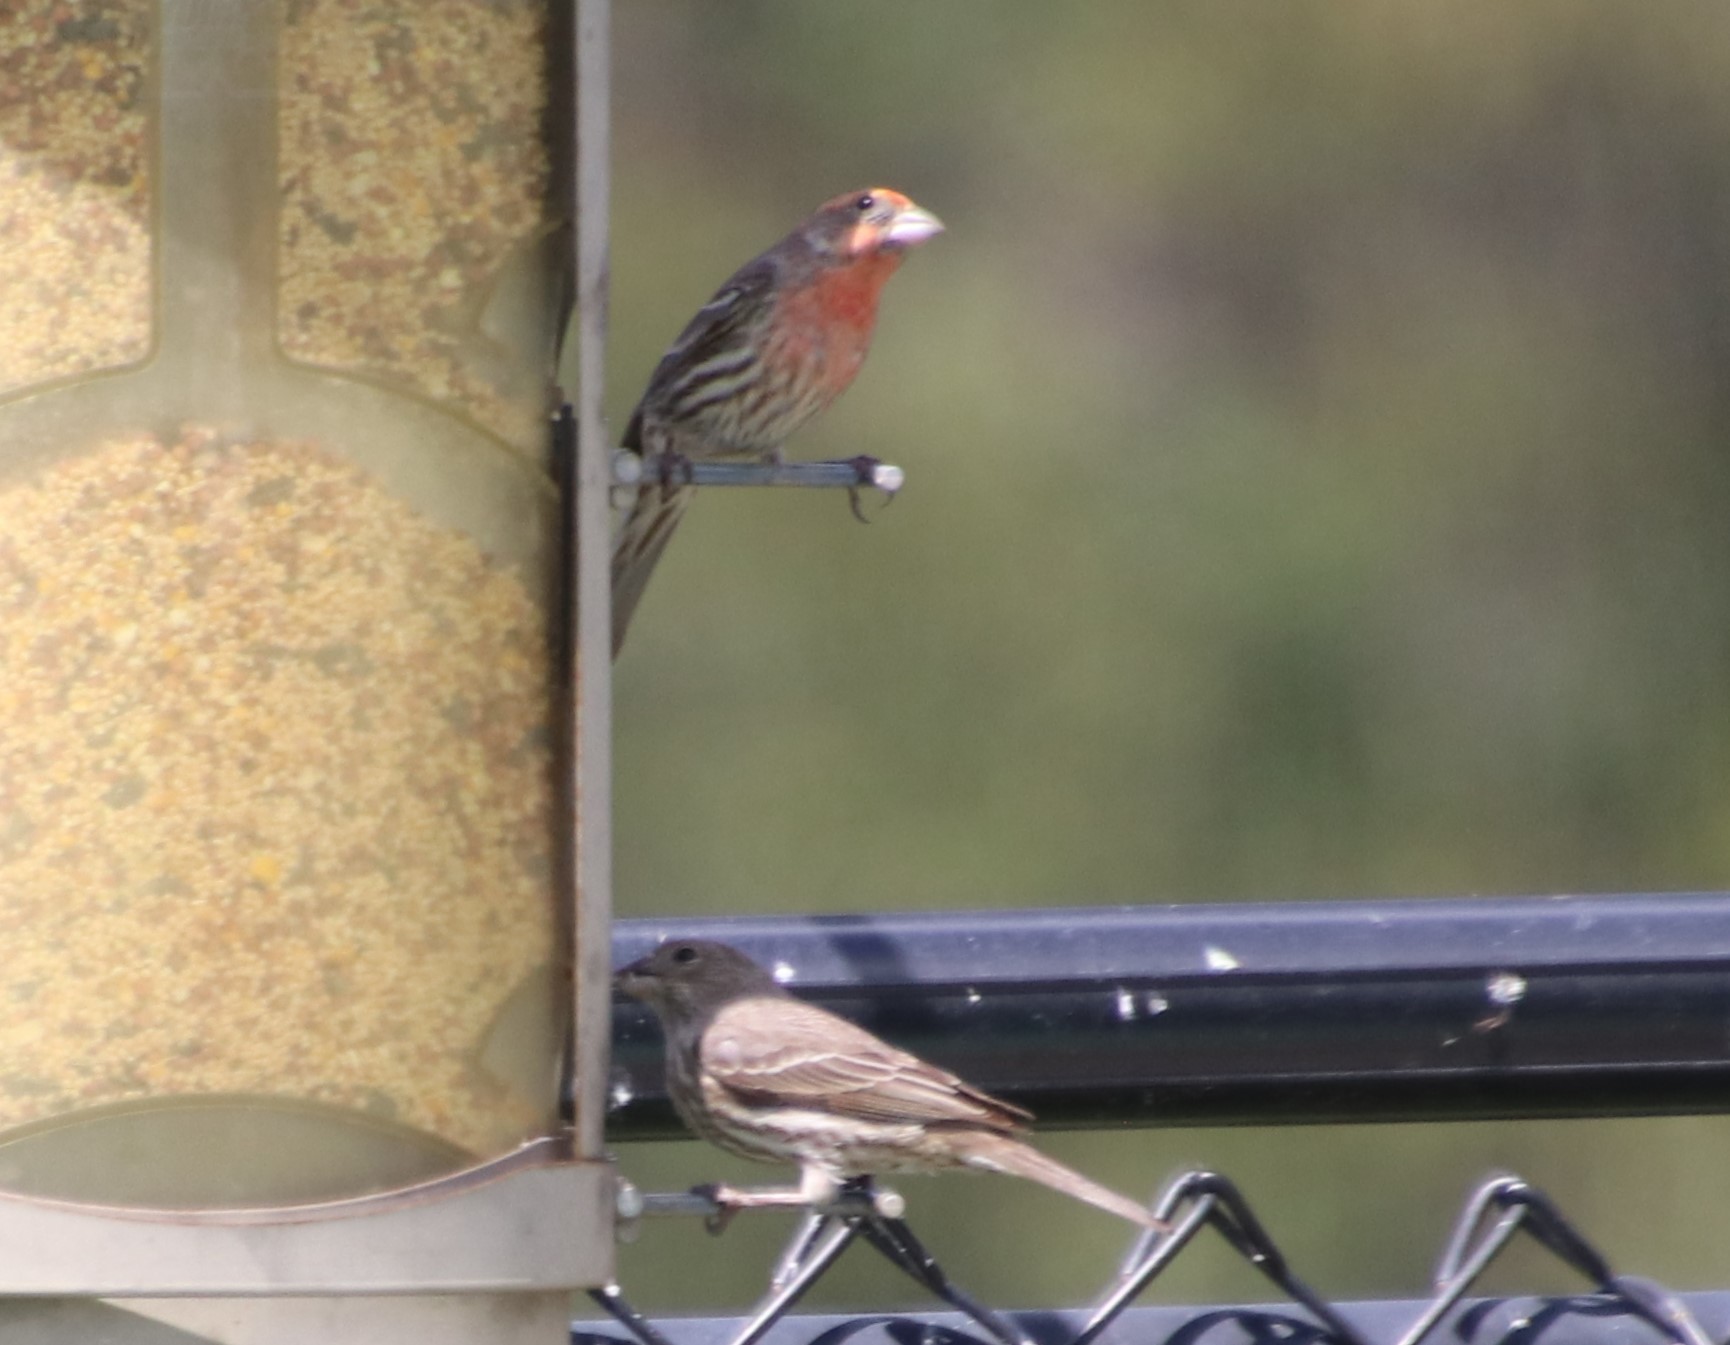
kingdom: Animalia
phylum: Chordata
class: Aves
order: Passeriformes
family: Fringillidae
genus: Haemorhous
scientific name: Haemorhous mexicanus
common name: House finch
